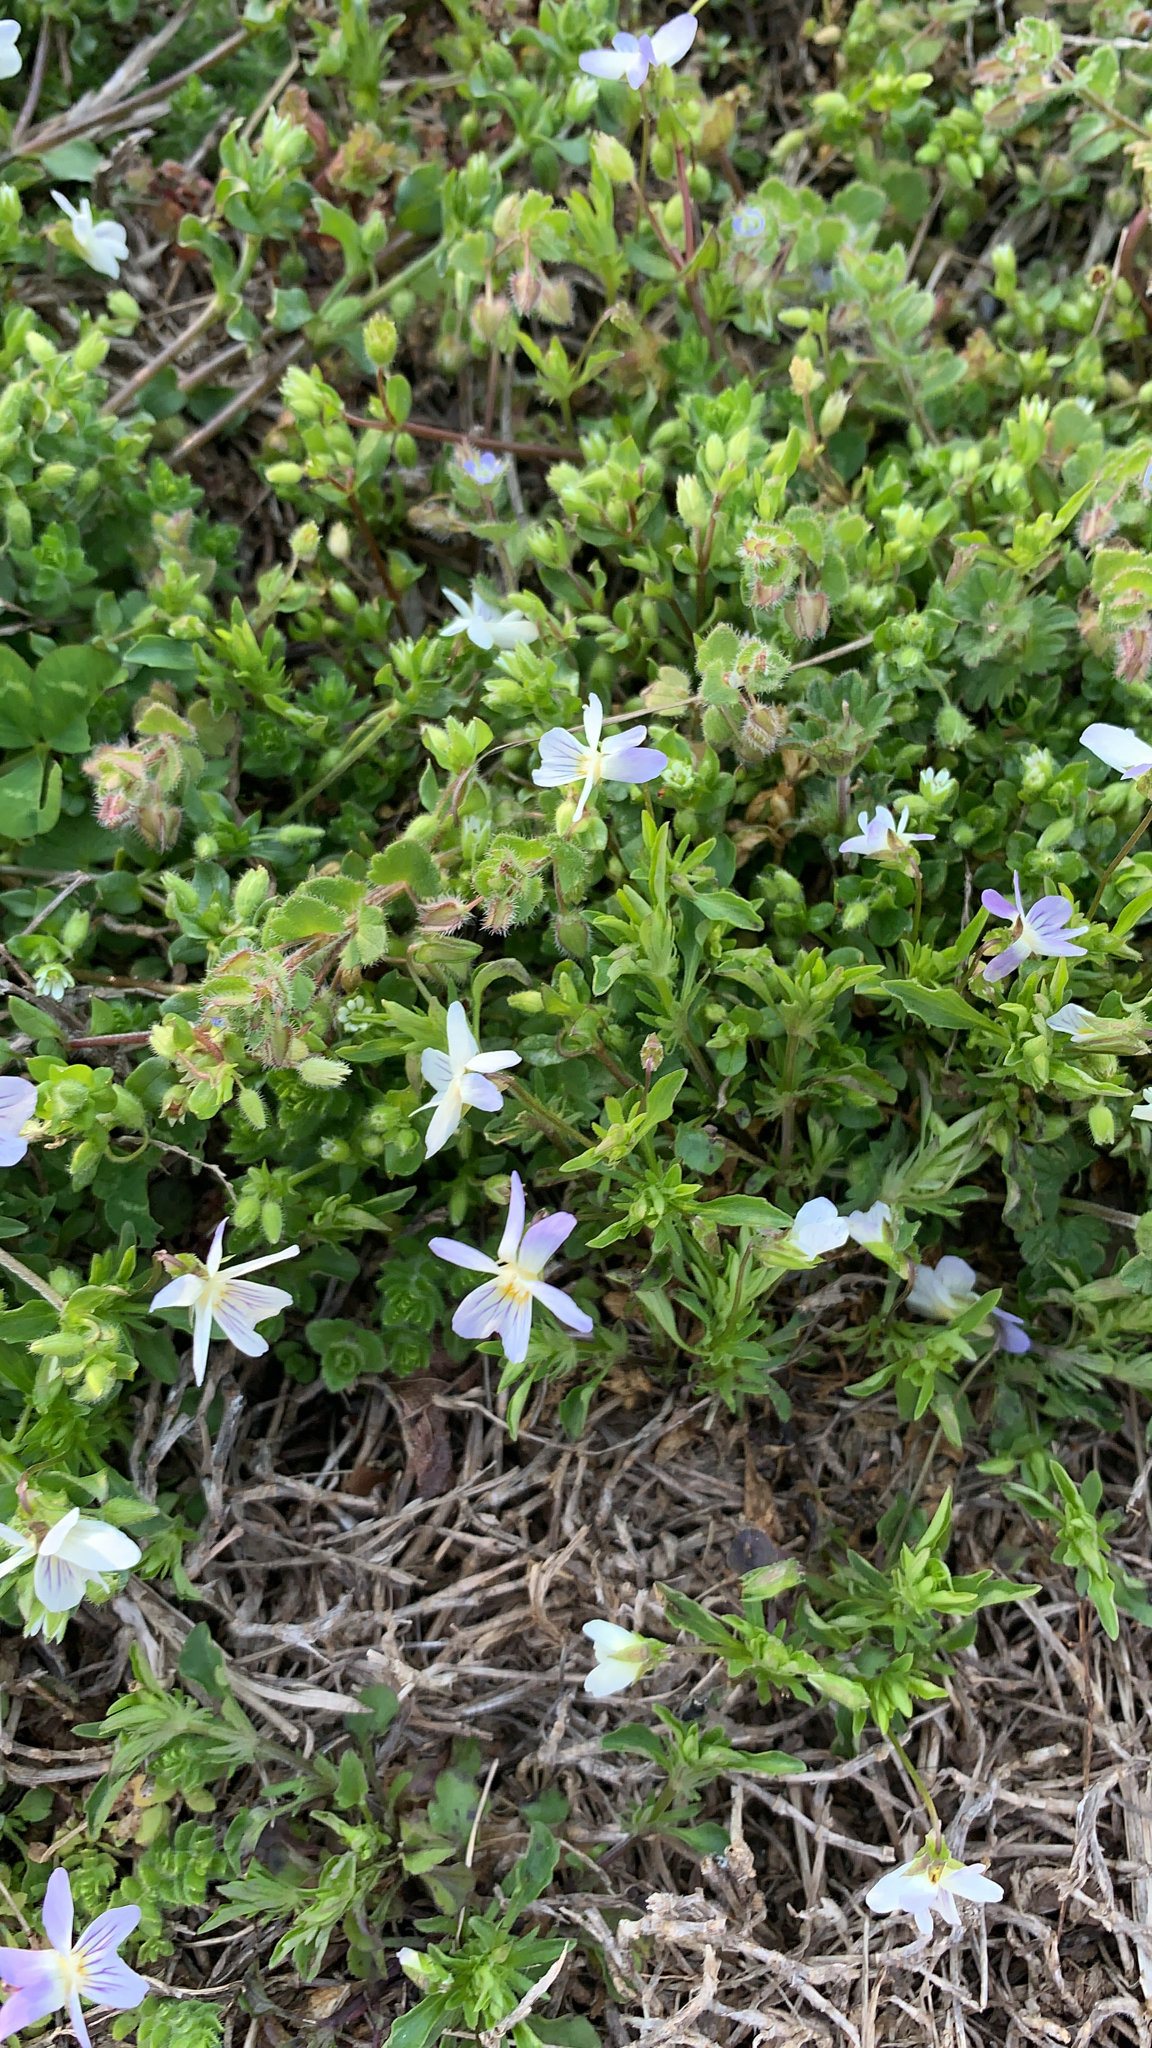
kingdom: Plantae
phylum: Tracheophyta
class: Magnoliopsida
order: Malpighiales
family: Violaceae
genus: Viola
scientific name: Viola rafinesquei
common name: American field pansy
